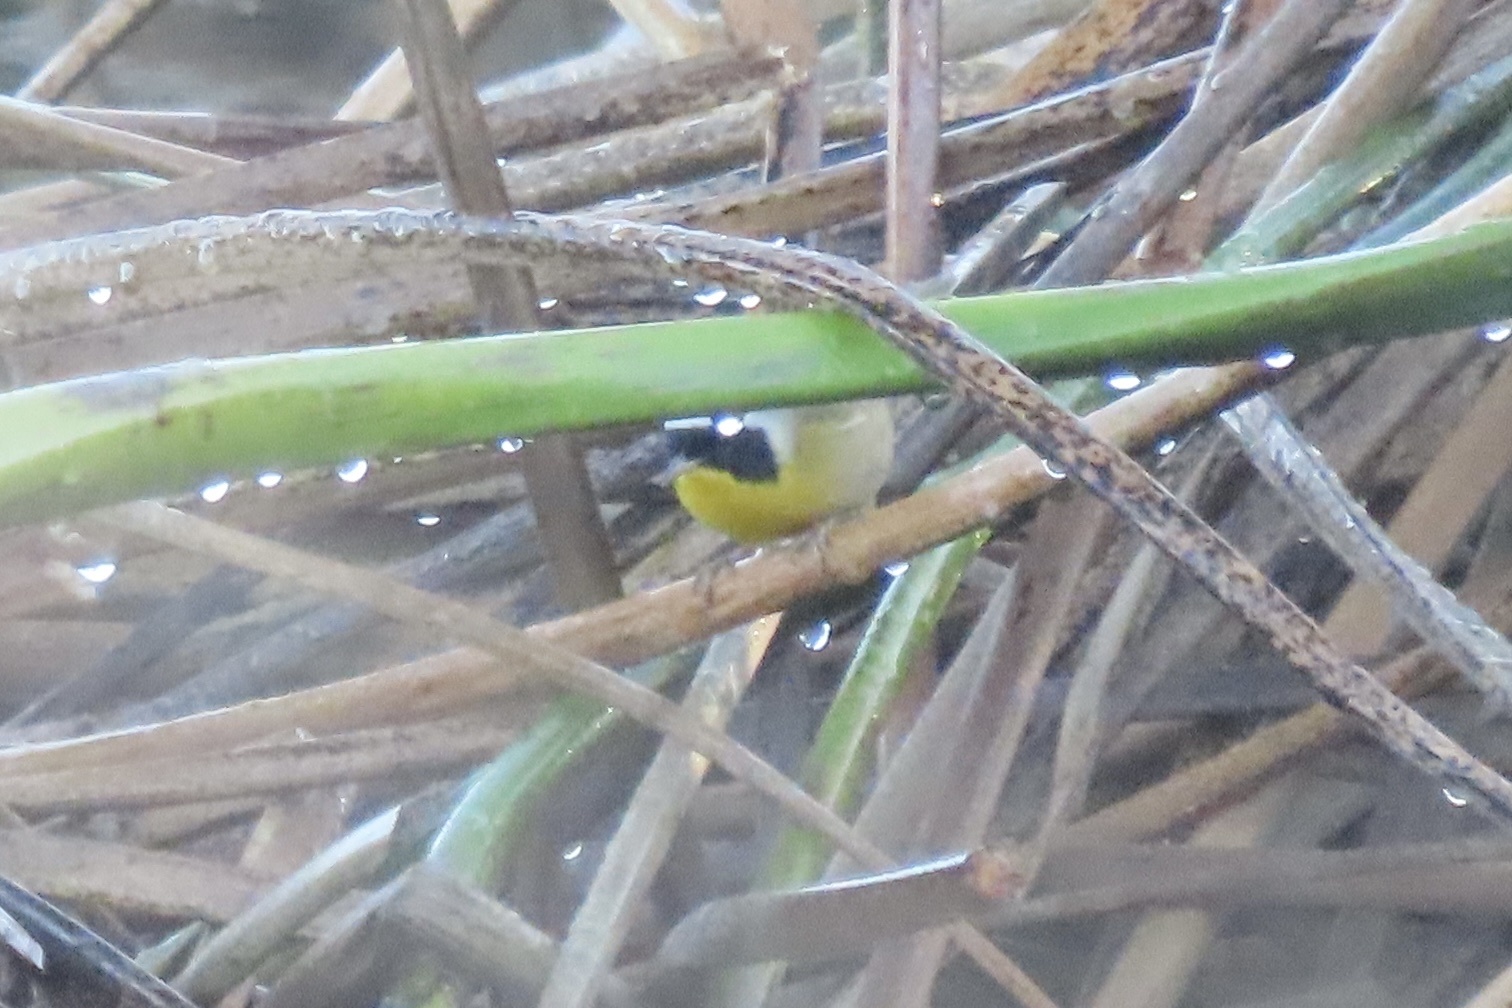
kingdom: Animalia
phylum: Chordata
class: Aves
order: Passeriformes
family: Parulidae
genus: Geothlypis
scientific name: Geothlypis trichas
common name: Common yellowthroat
